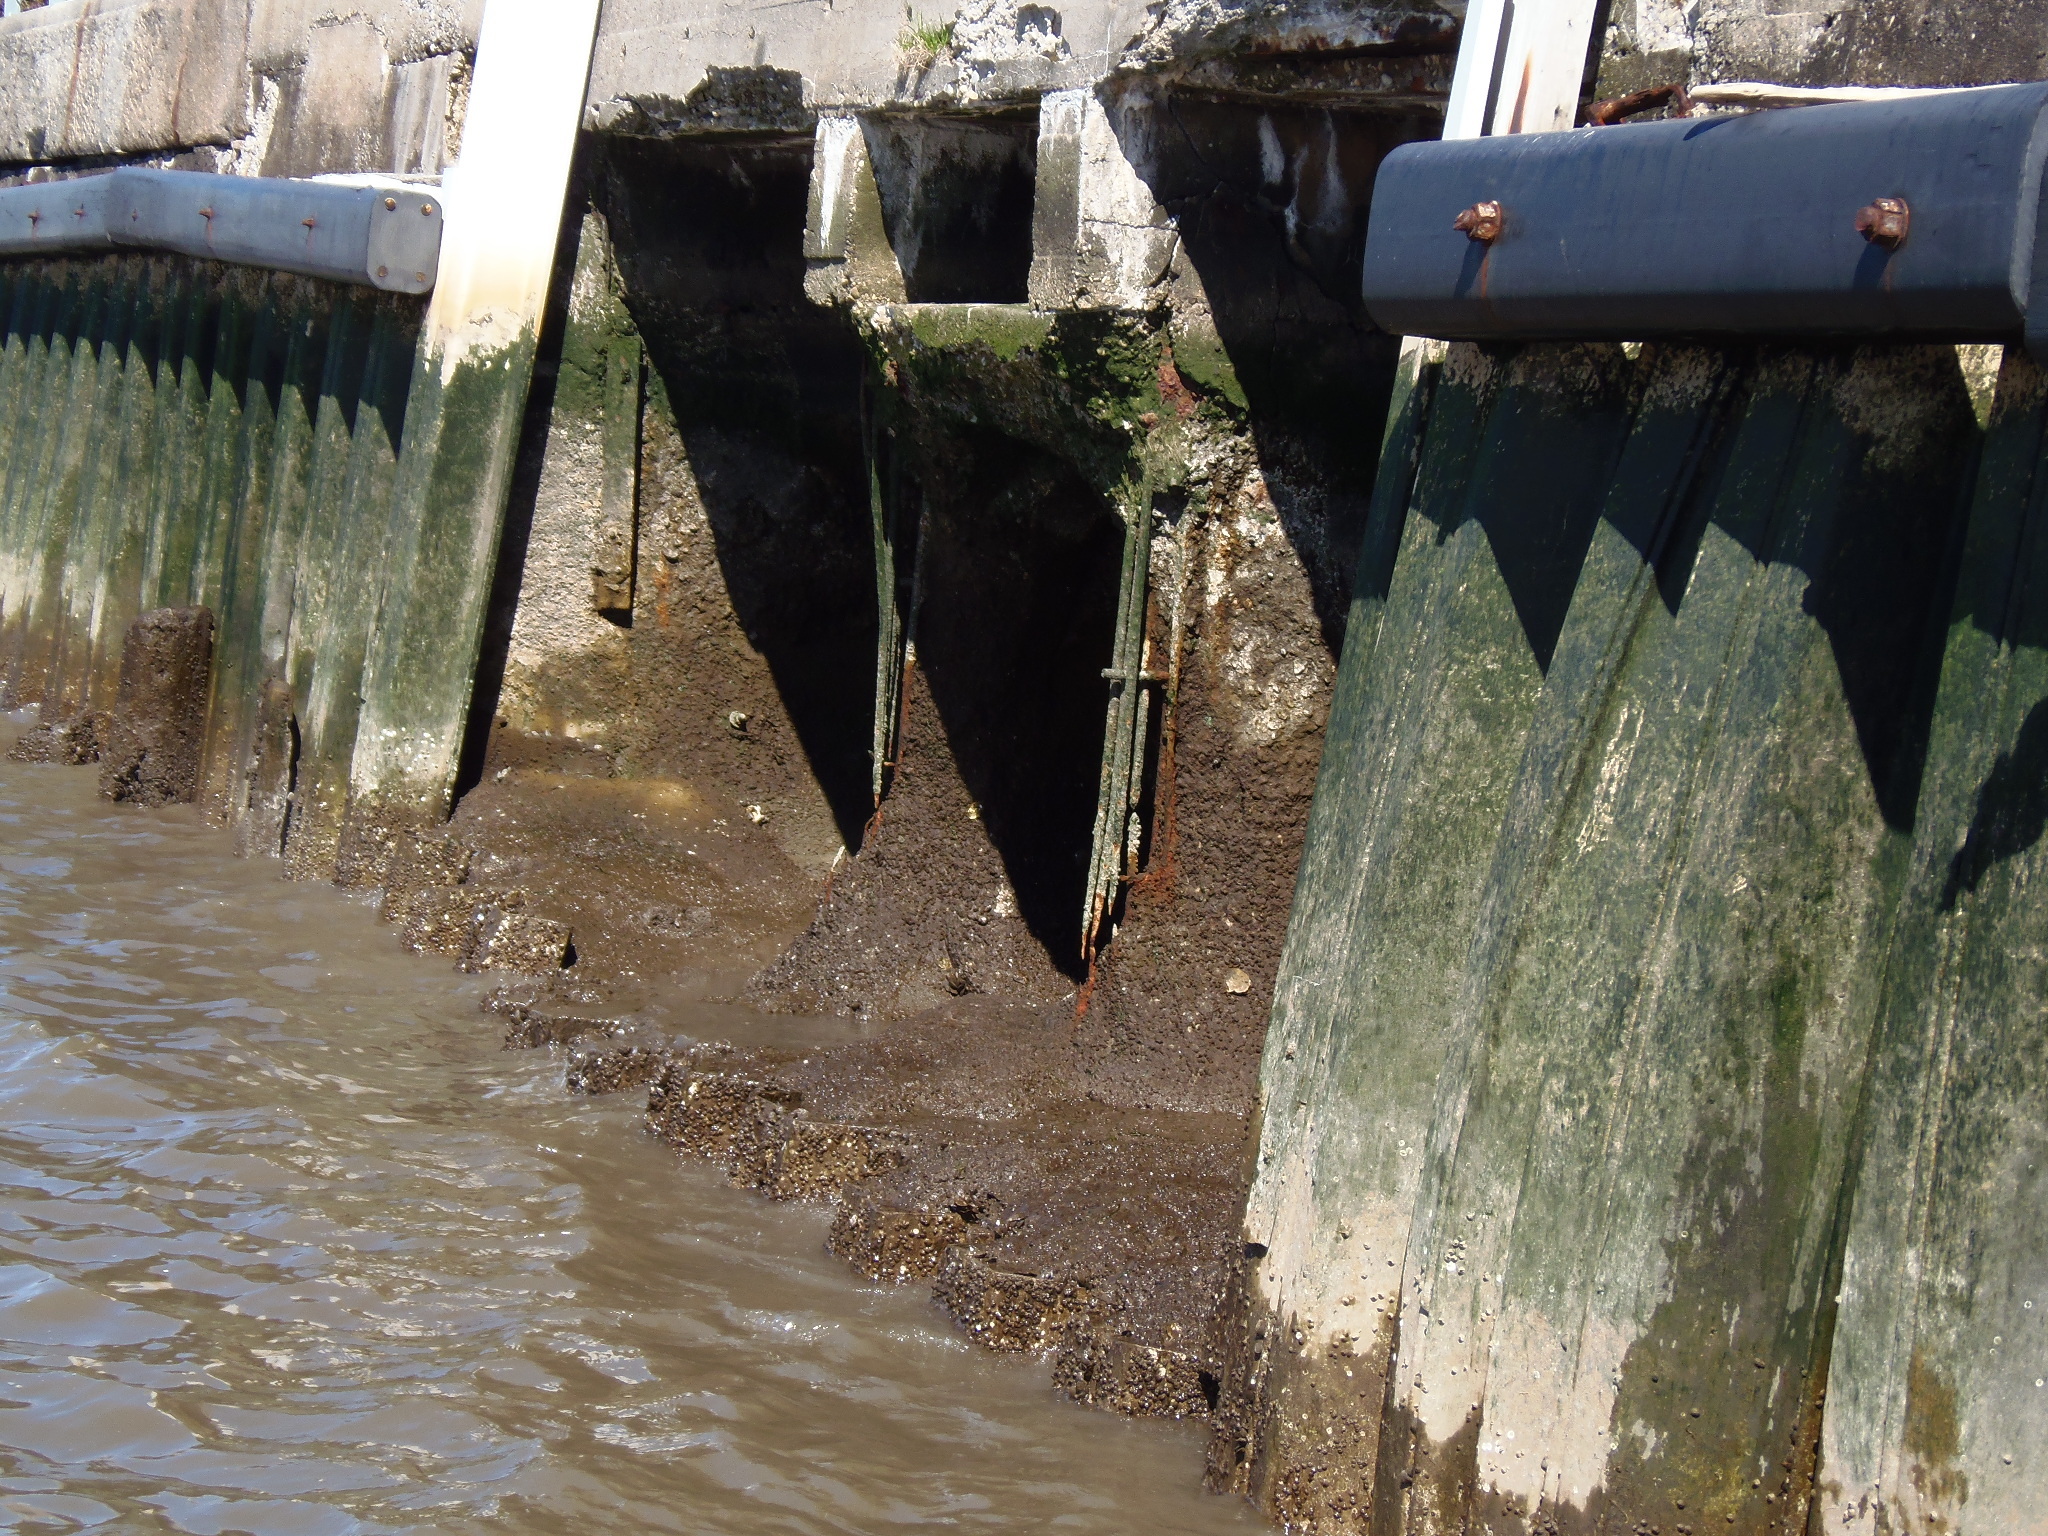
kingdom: Animalia
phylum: Mollusca
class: Bivalvia
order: Ostreida
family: Ostreidae
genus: Crassostrea
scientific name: Crassostrea virginica
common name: American oyster
